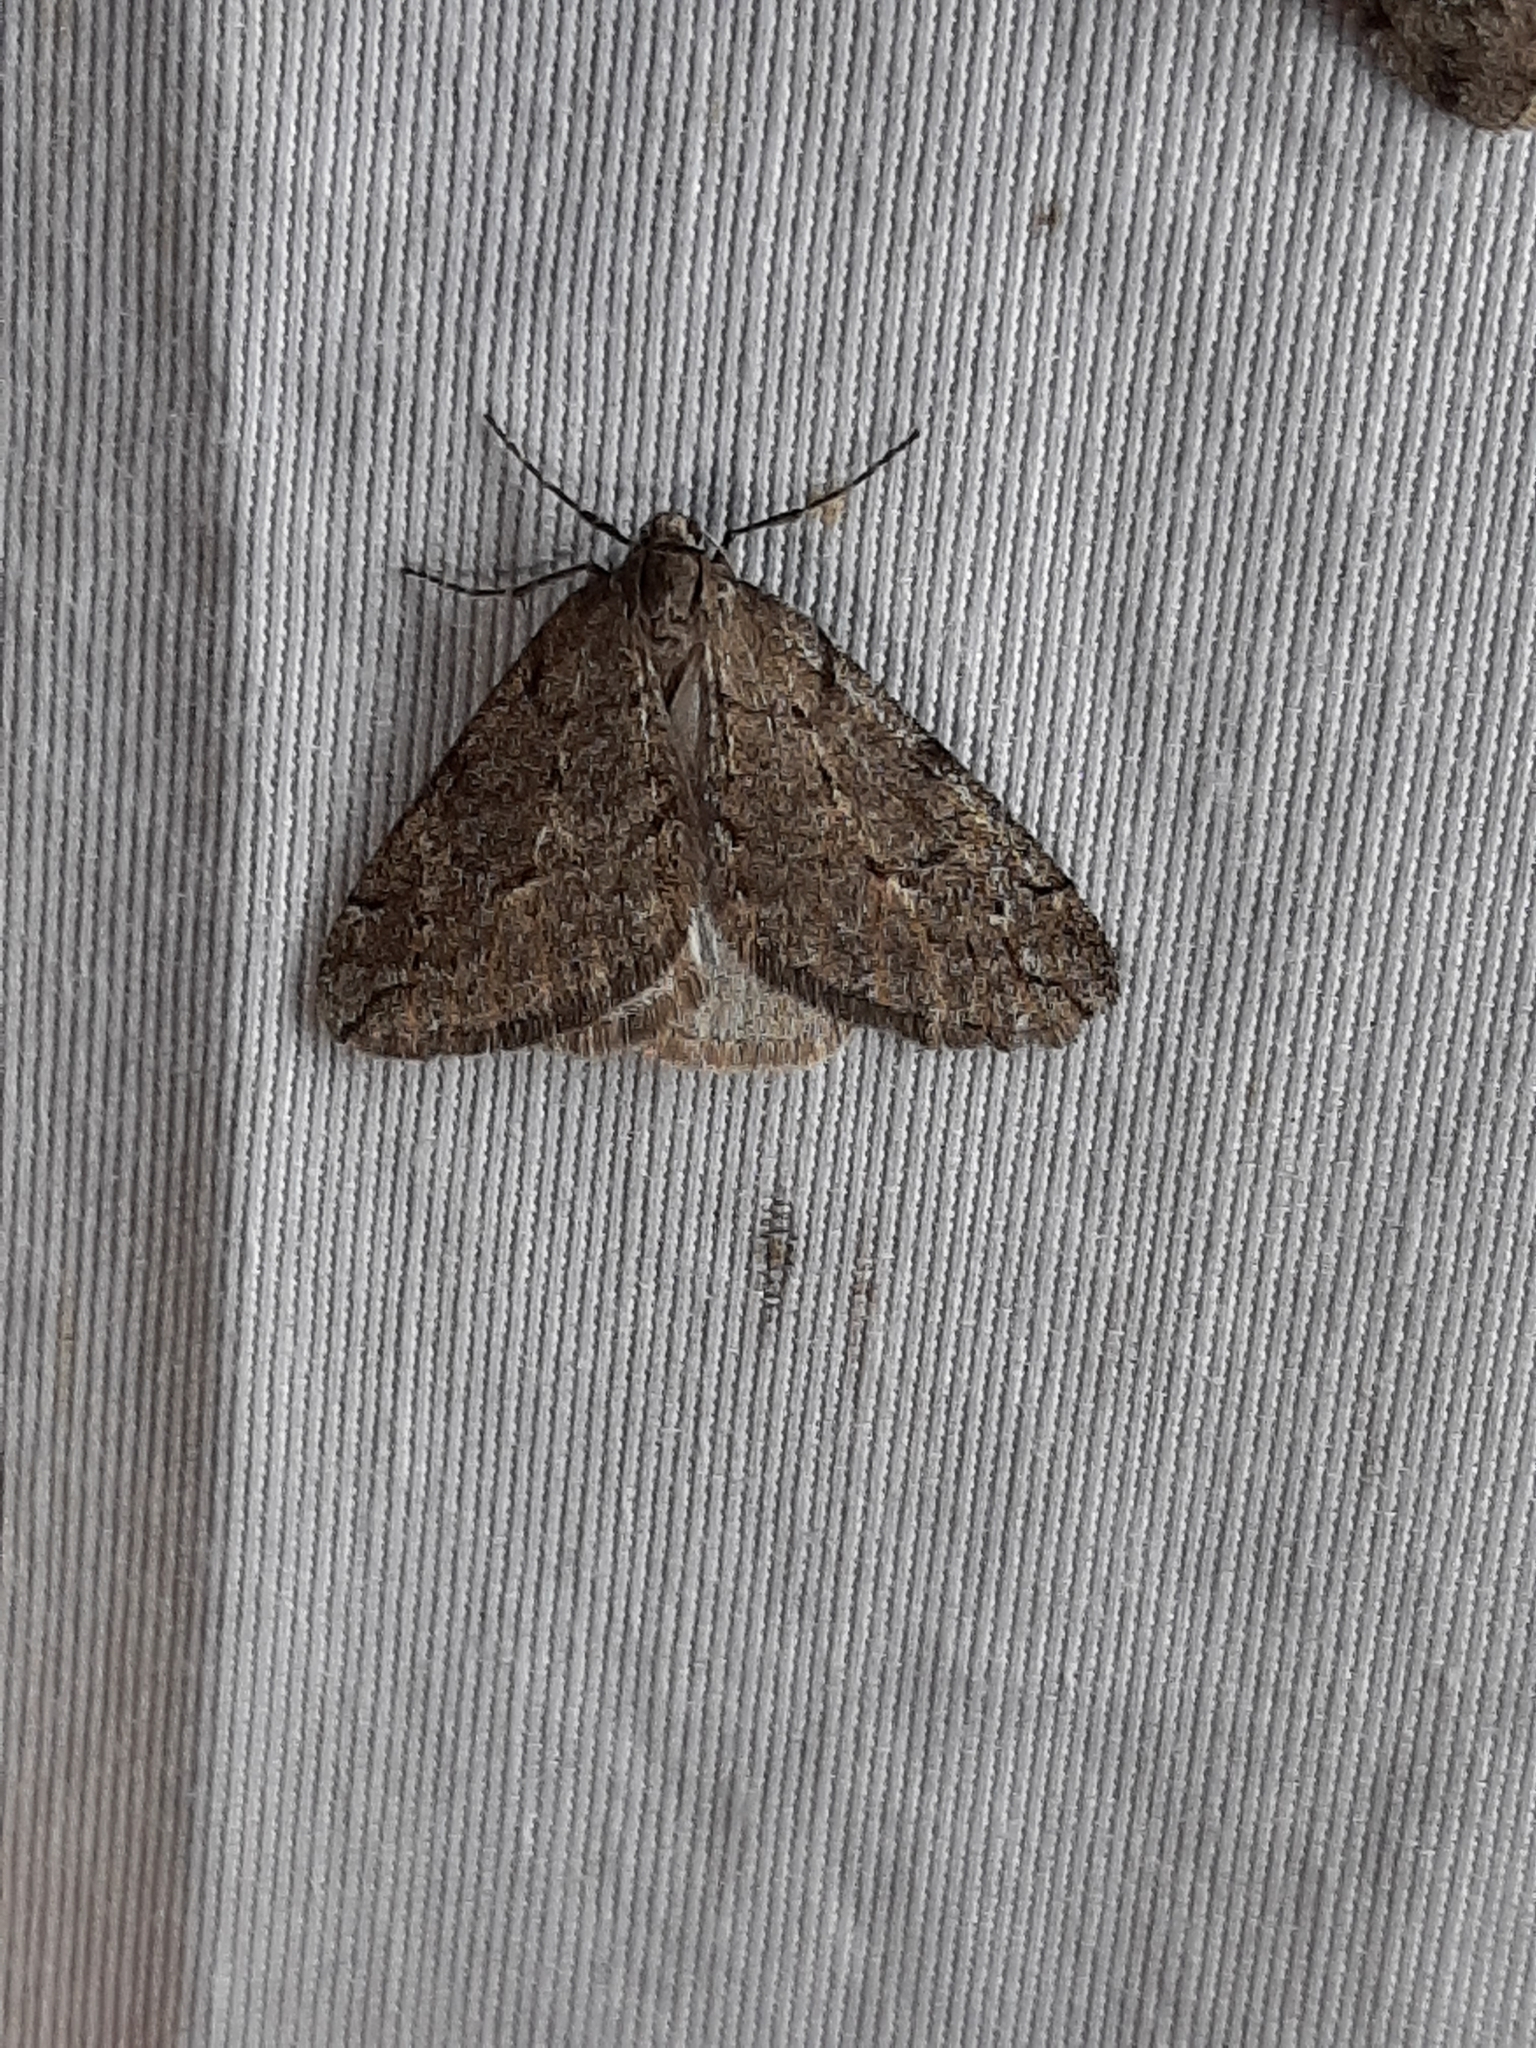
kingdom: Animalia
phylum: Arthropoda
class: Insecta
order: Lepidoptera
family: Geometridae
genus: Paleacrita
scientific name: Paleacrita vernata
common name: Spring cankerworm
